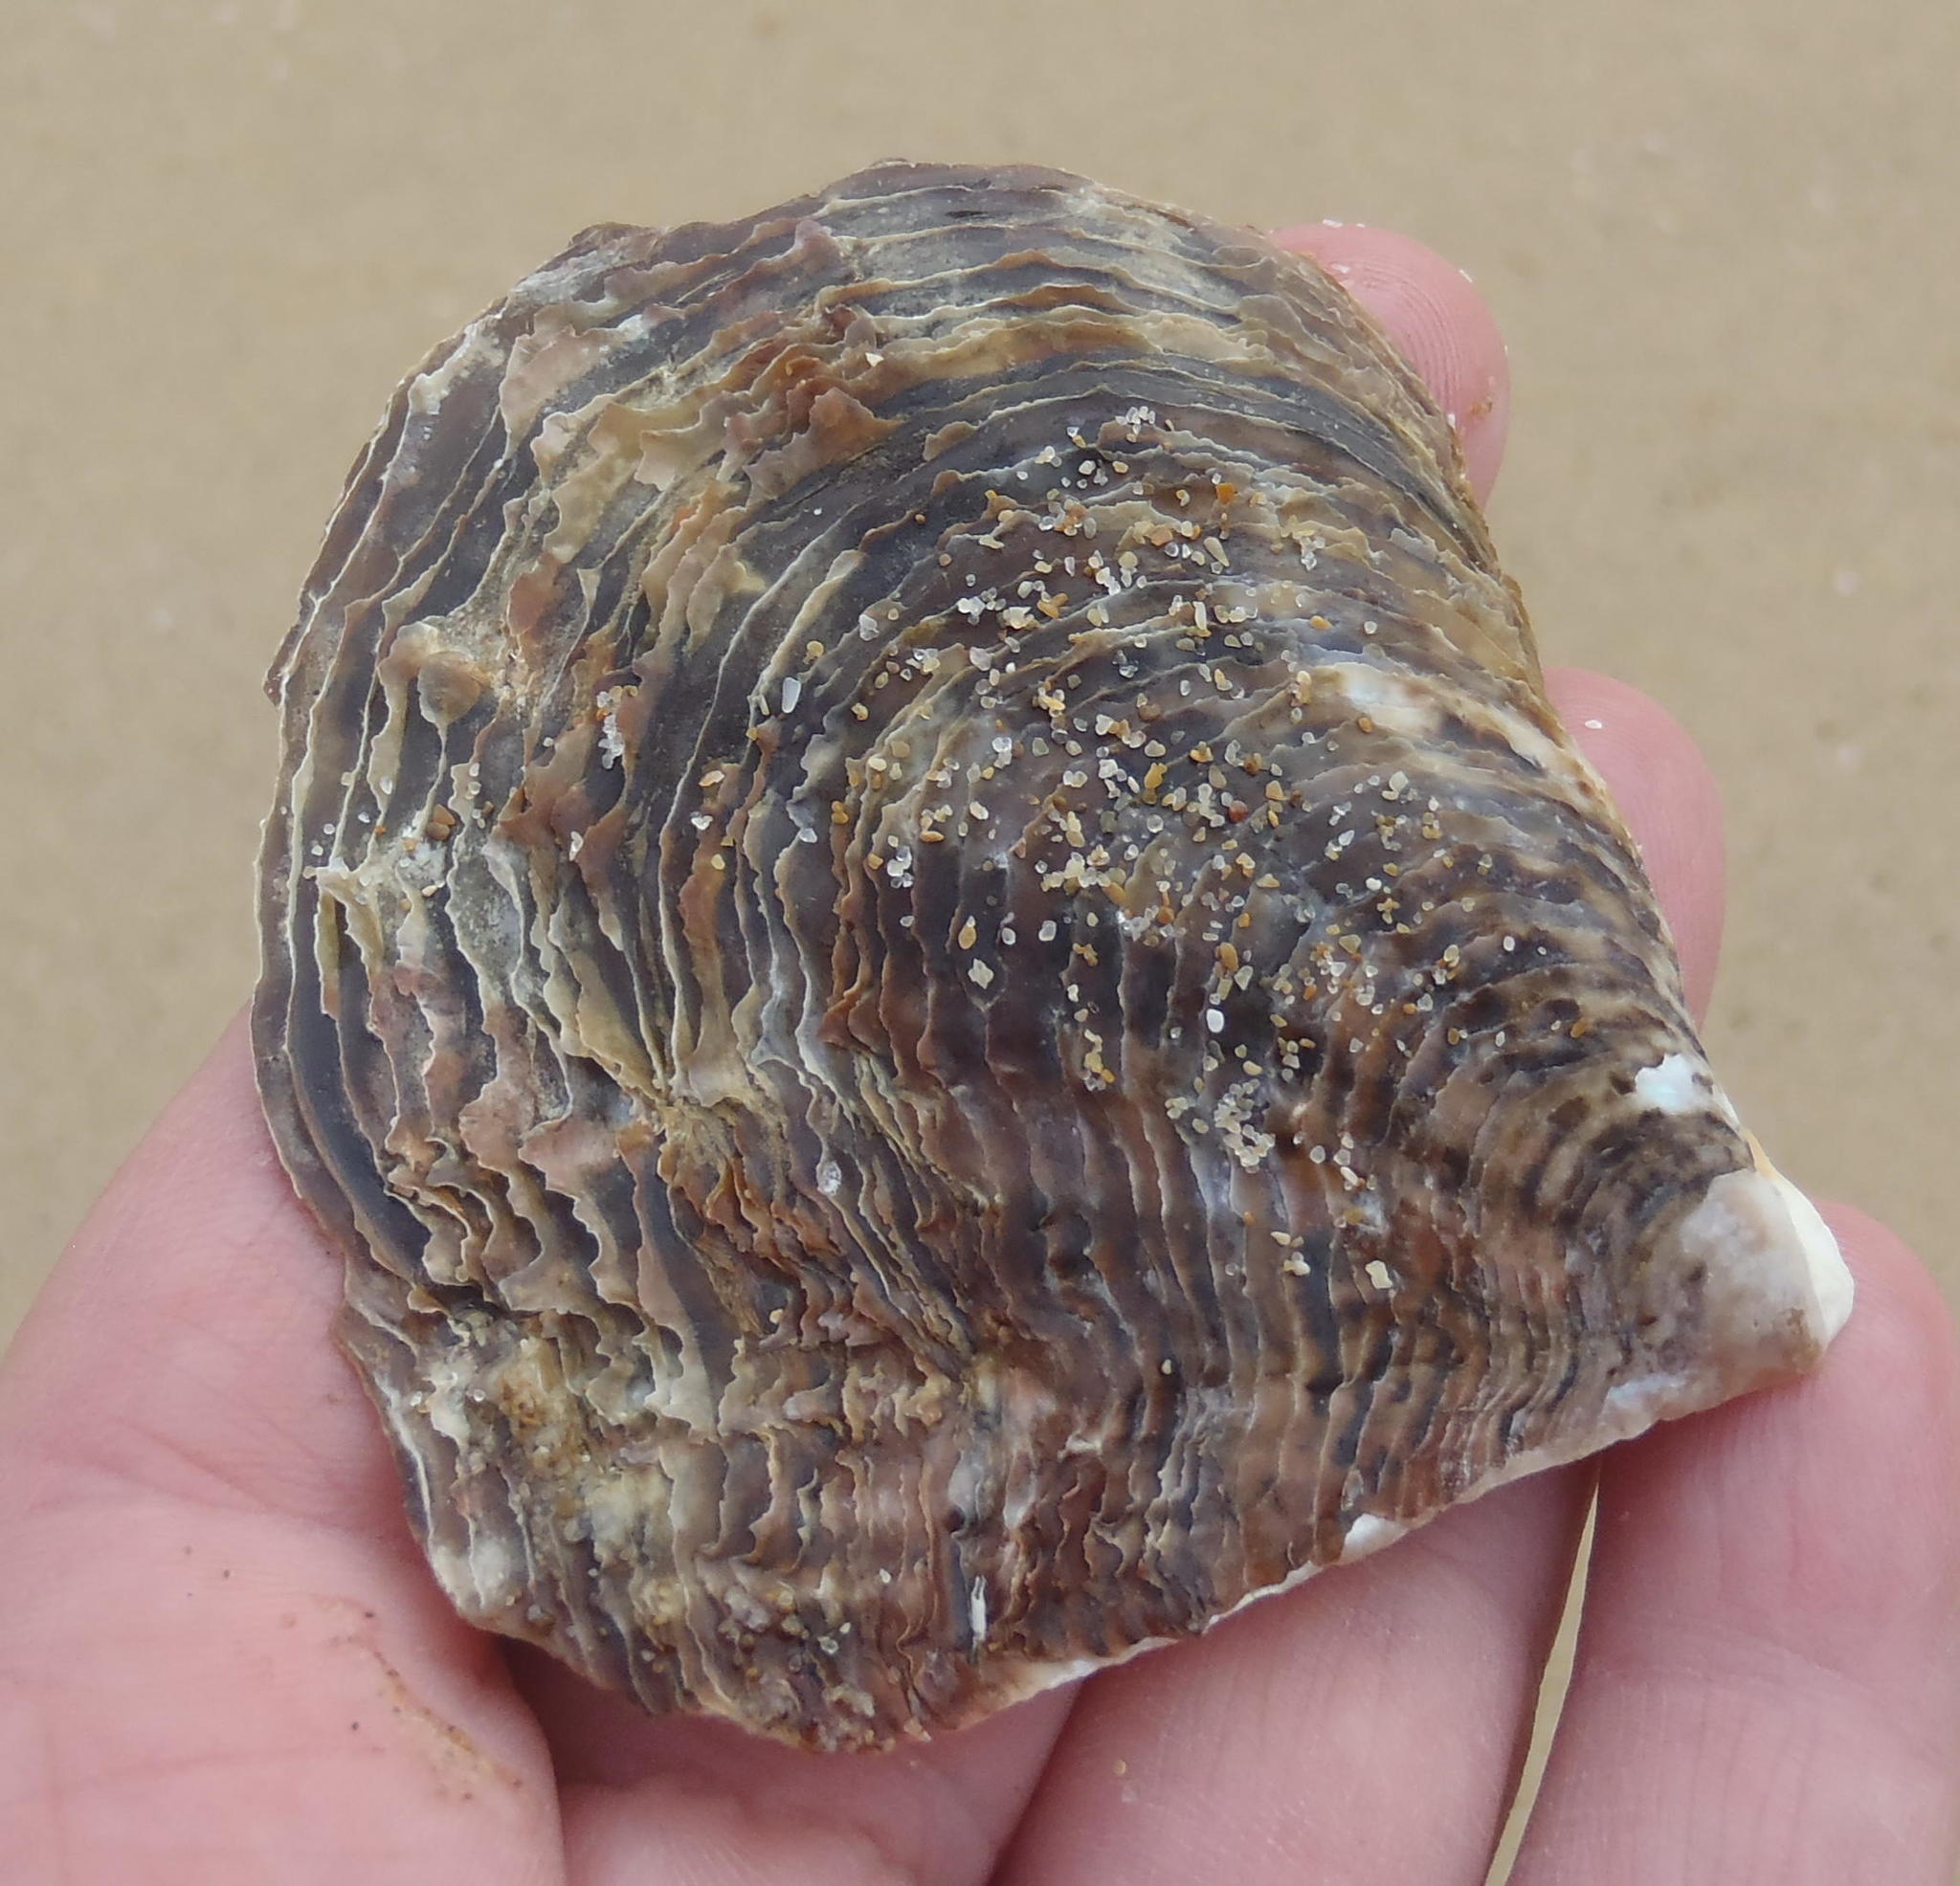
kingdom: Animalia
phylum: Mollusca
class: Bivalvia
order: Ostreida
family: Margaritidae
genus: Pinctada
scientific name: Pinctada capensis
